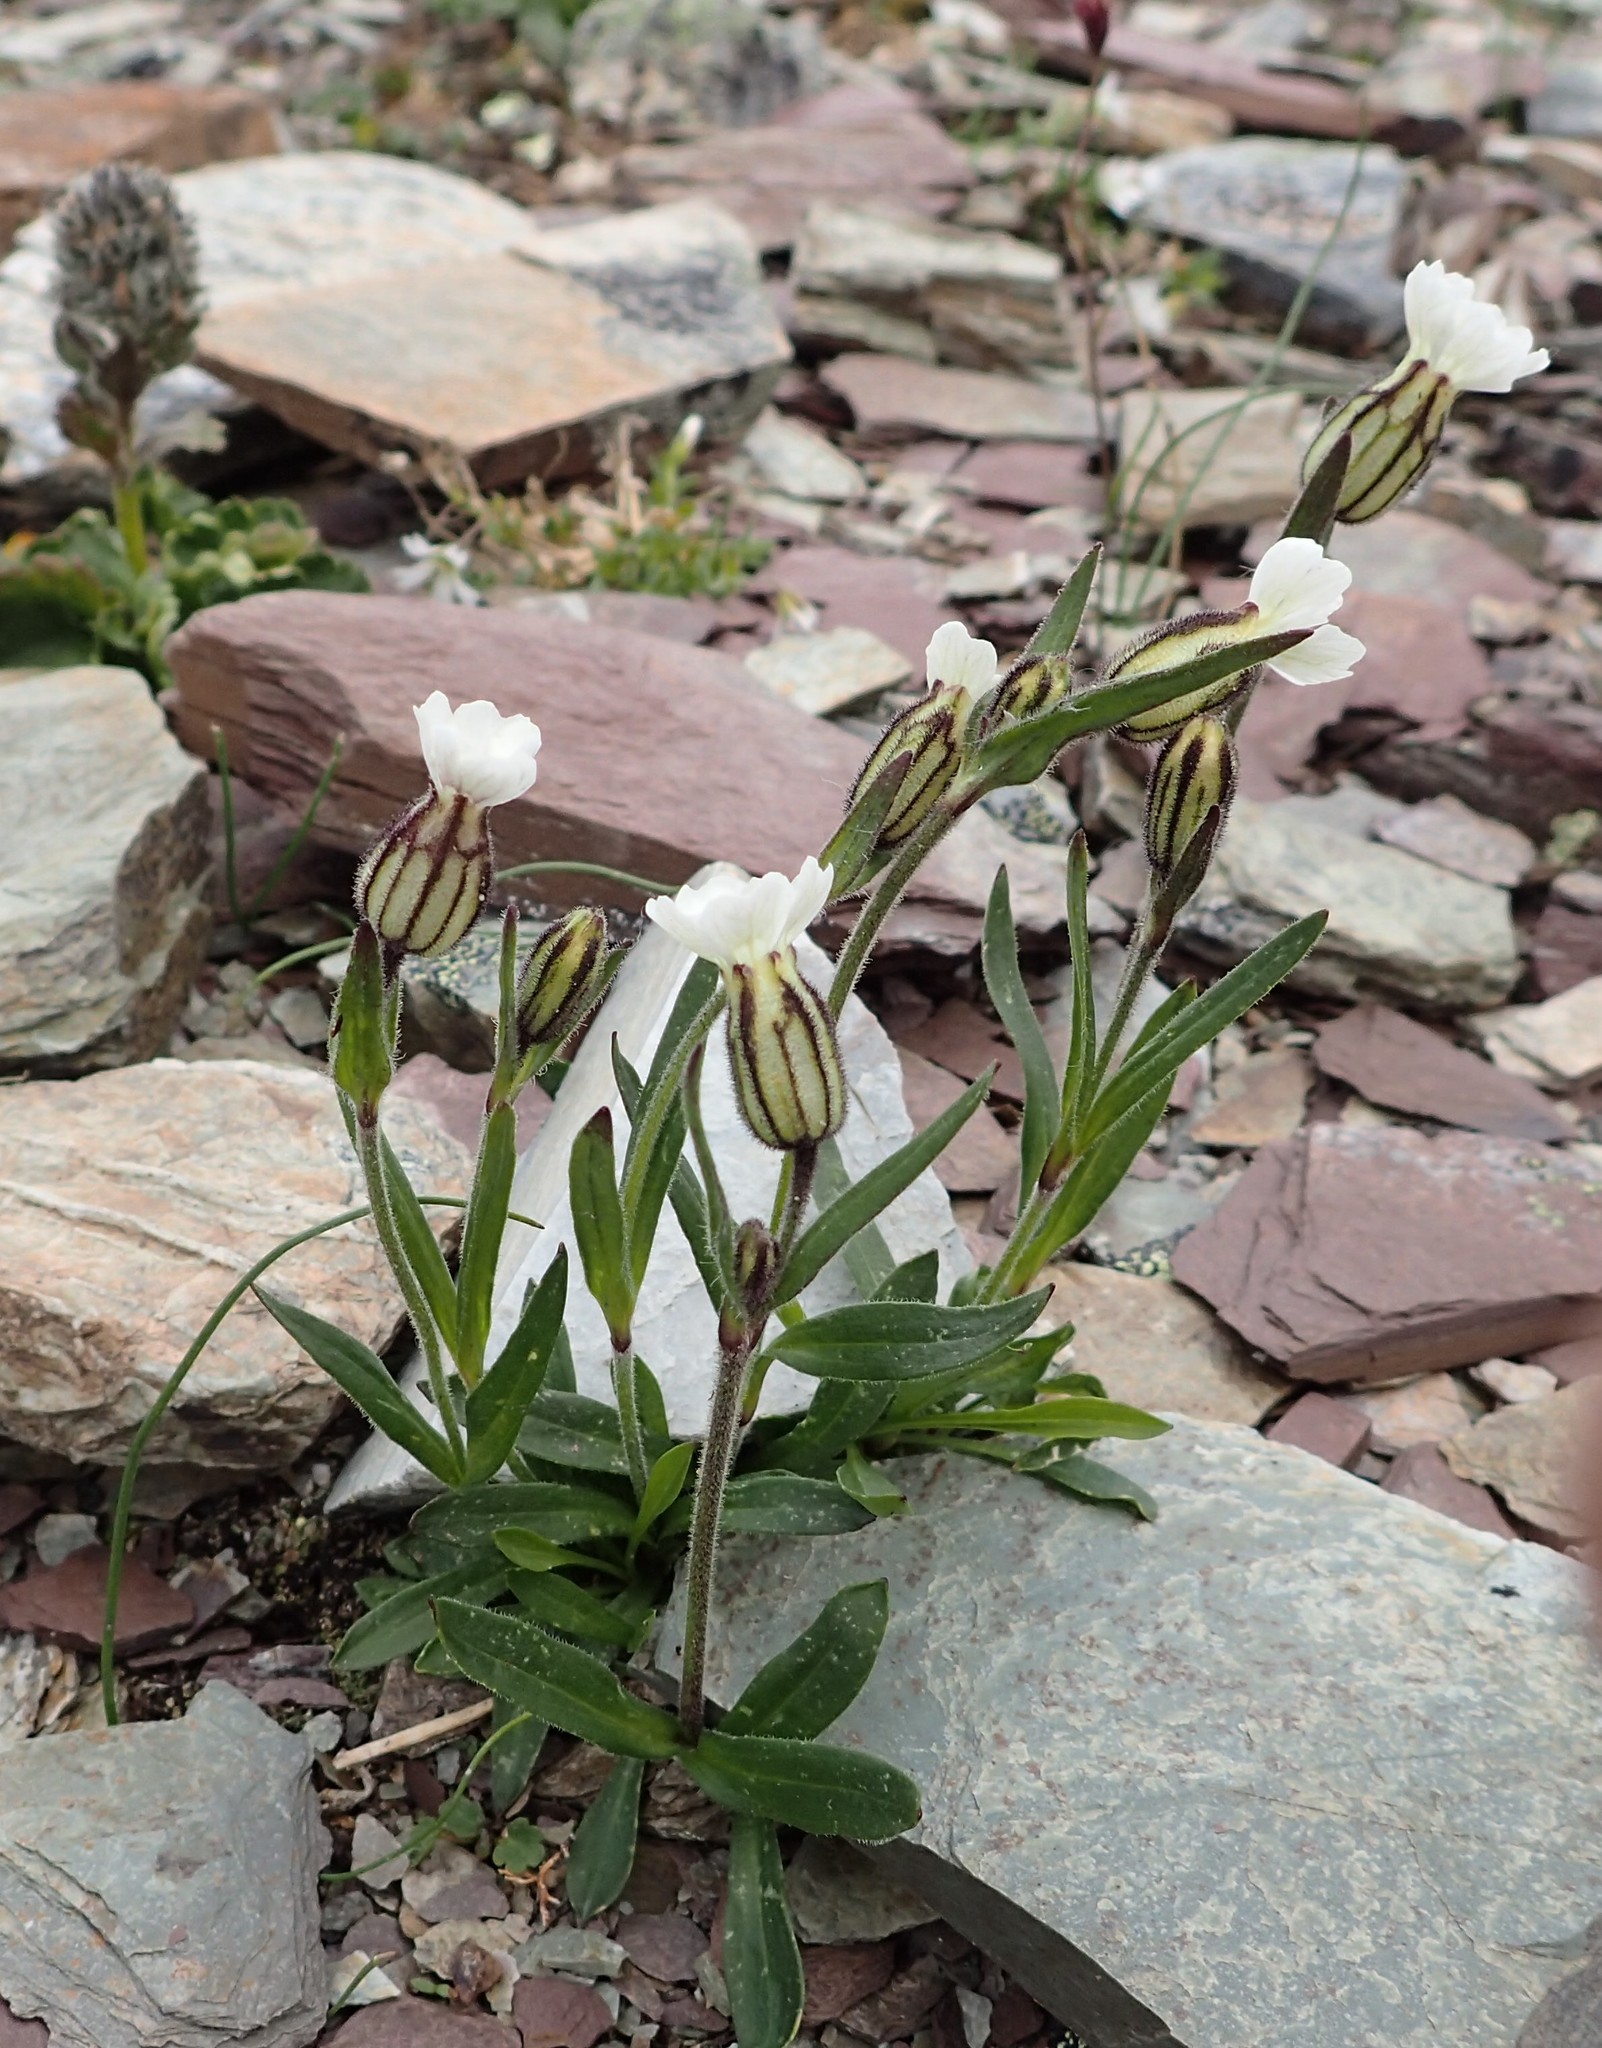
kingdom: Plantae
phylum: Tracheophyta
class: Magnoliopsida
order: Caryophyllales
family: Caryophyllaceae
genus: Silene
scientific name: Silene involucrata
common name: Greater arctic campion
